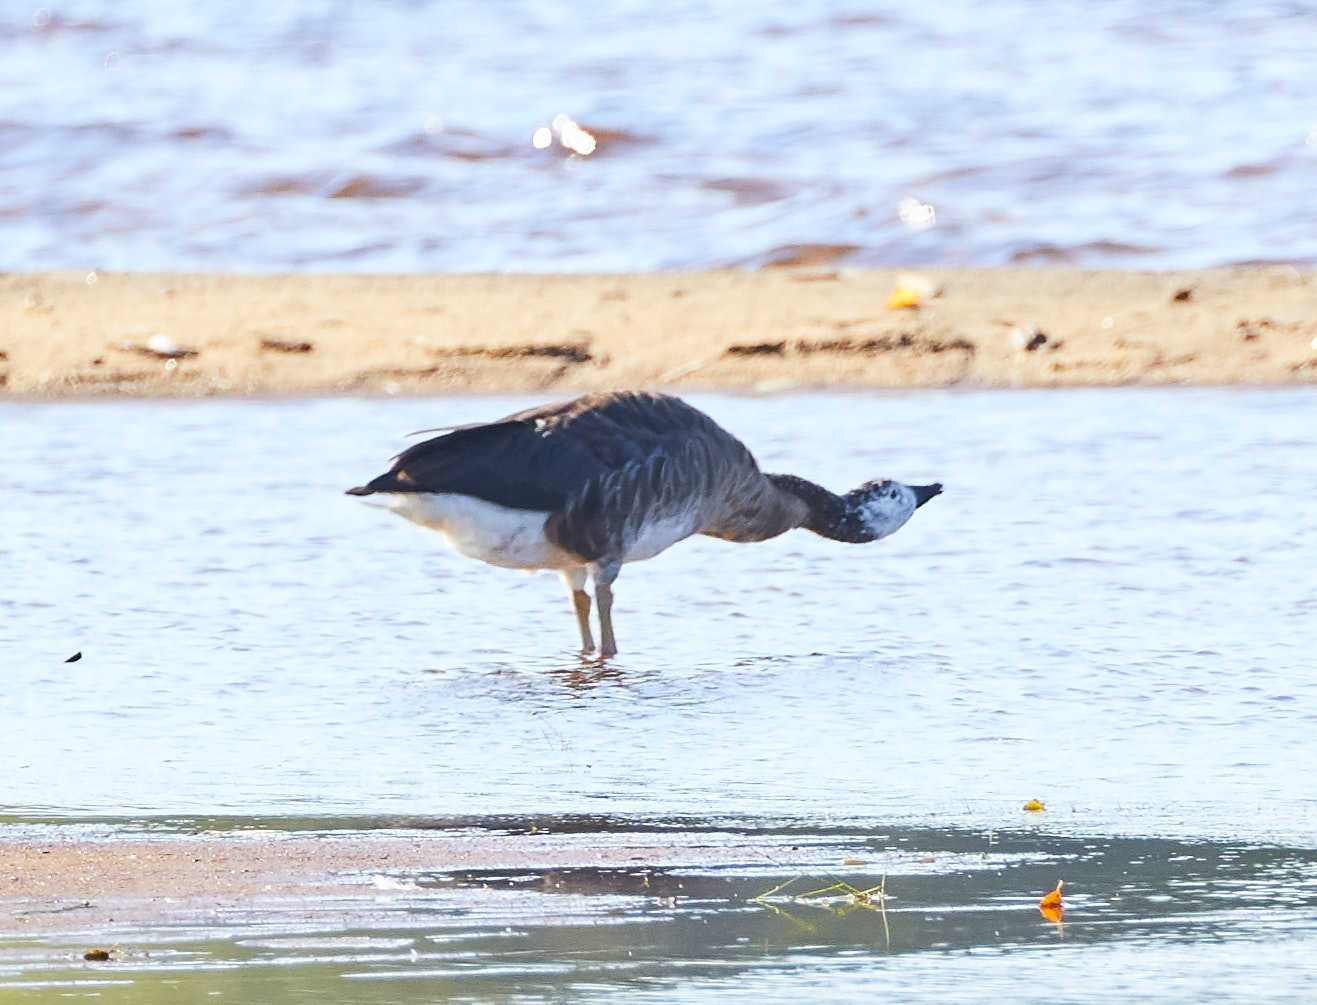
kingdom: Animalia
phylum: Chordata
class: Aves
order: Anseriformes
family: Anatidae
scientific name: Anatidae
